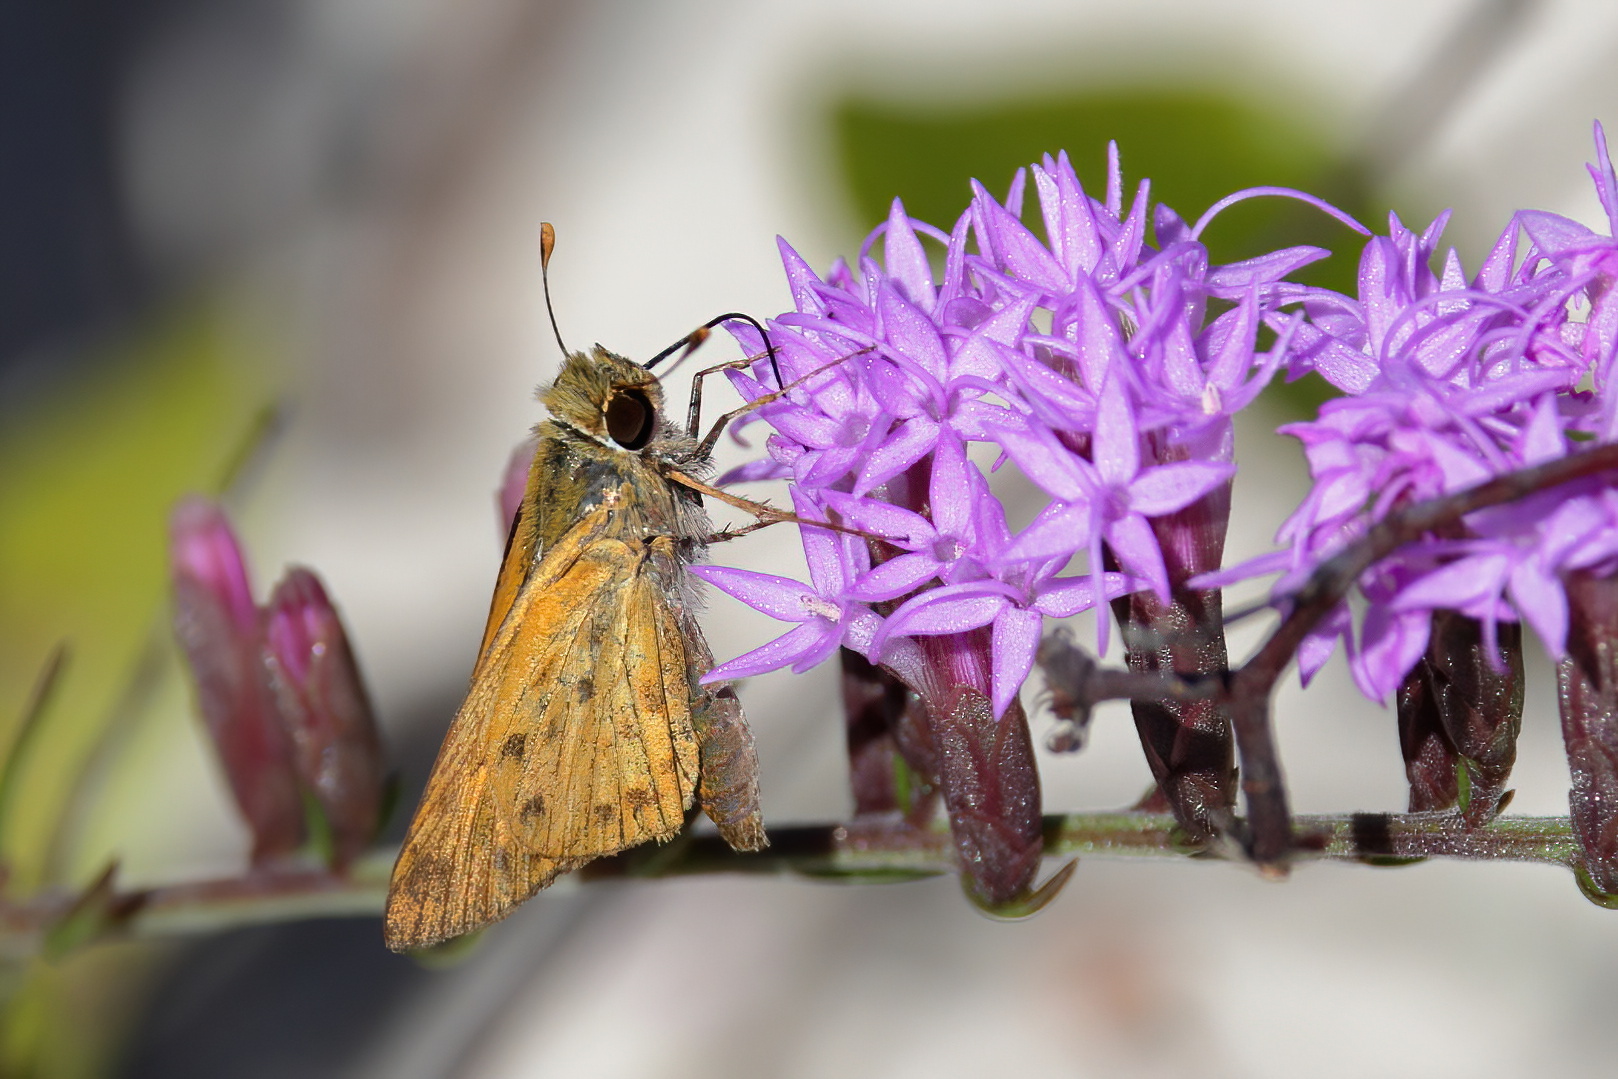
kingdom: Animalia
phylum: Arthropoda
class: Insecta
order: Lepidoptera
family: Hesperiidae
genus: Hylephila
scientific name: Hylephila phyleus
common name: Fiery skipper
